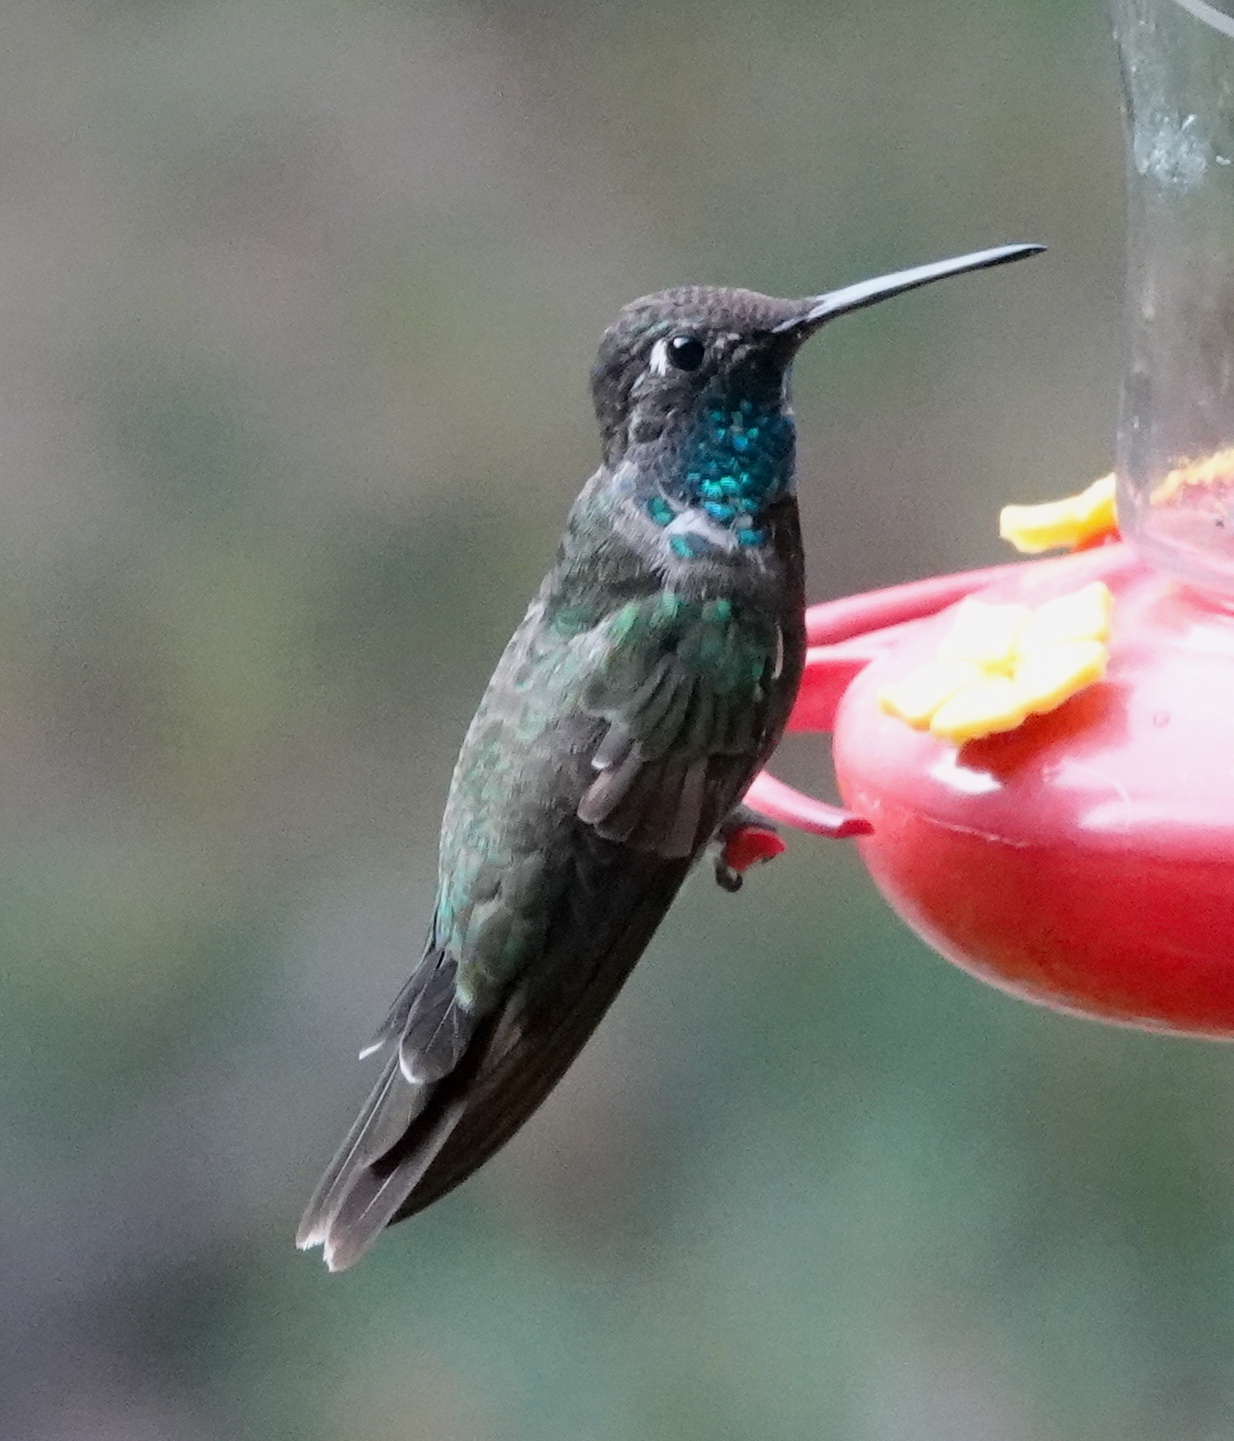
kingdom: Animalia
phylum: Chordata
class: Aves
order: Apodiformes
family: Trochilidae
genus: Eugenes
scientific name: Eugenes fulgens
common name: Magnificent hummingbird
